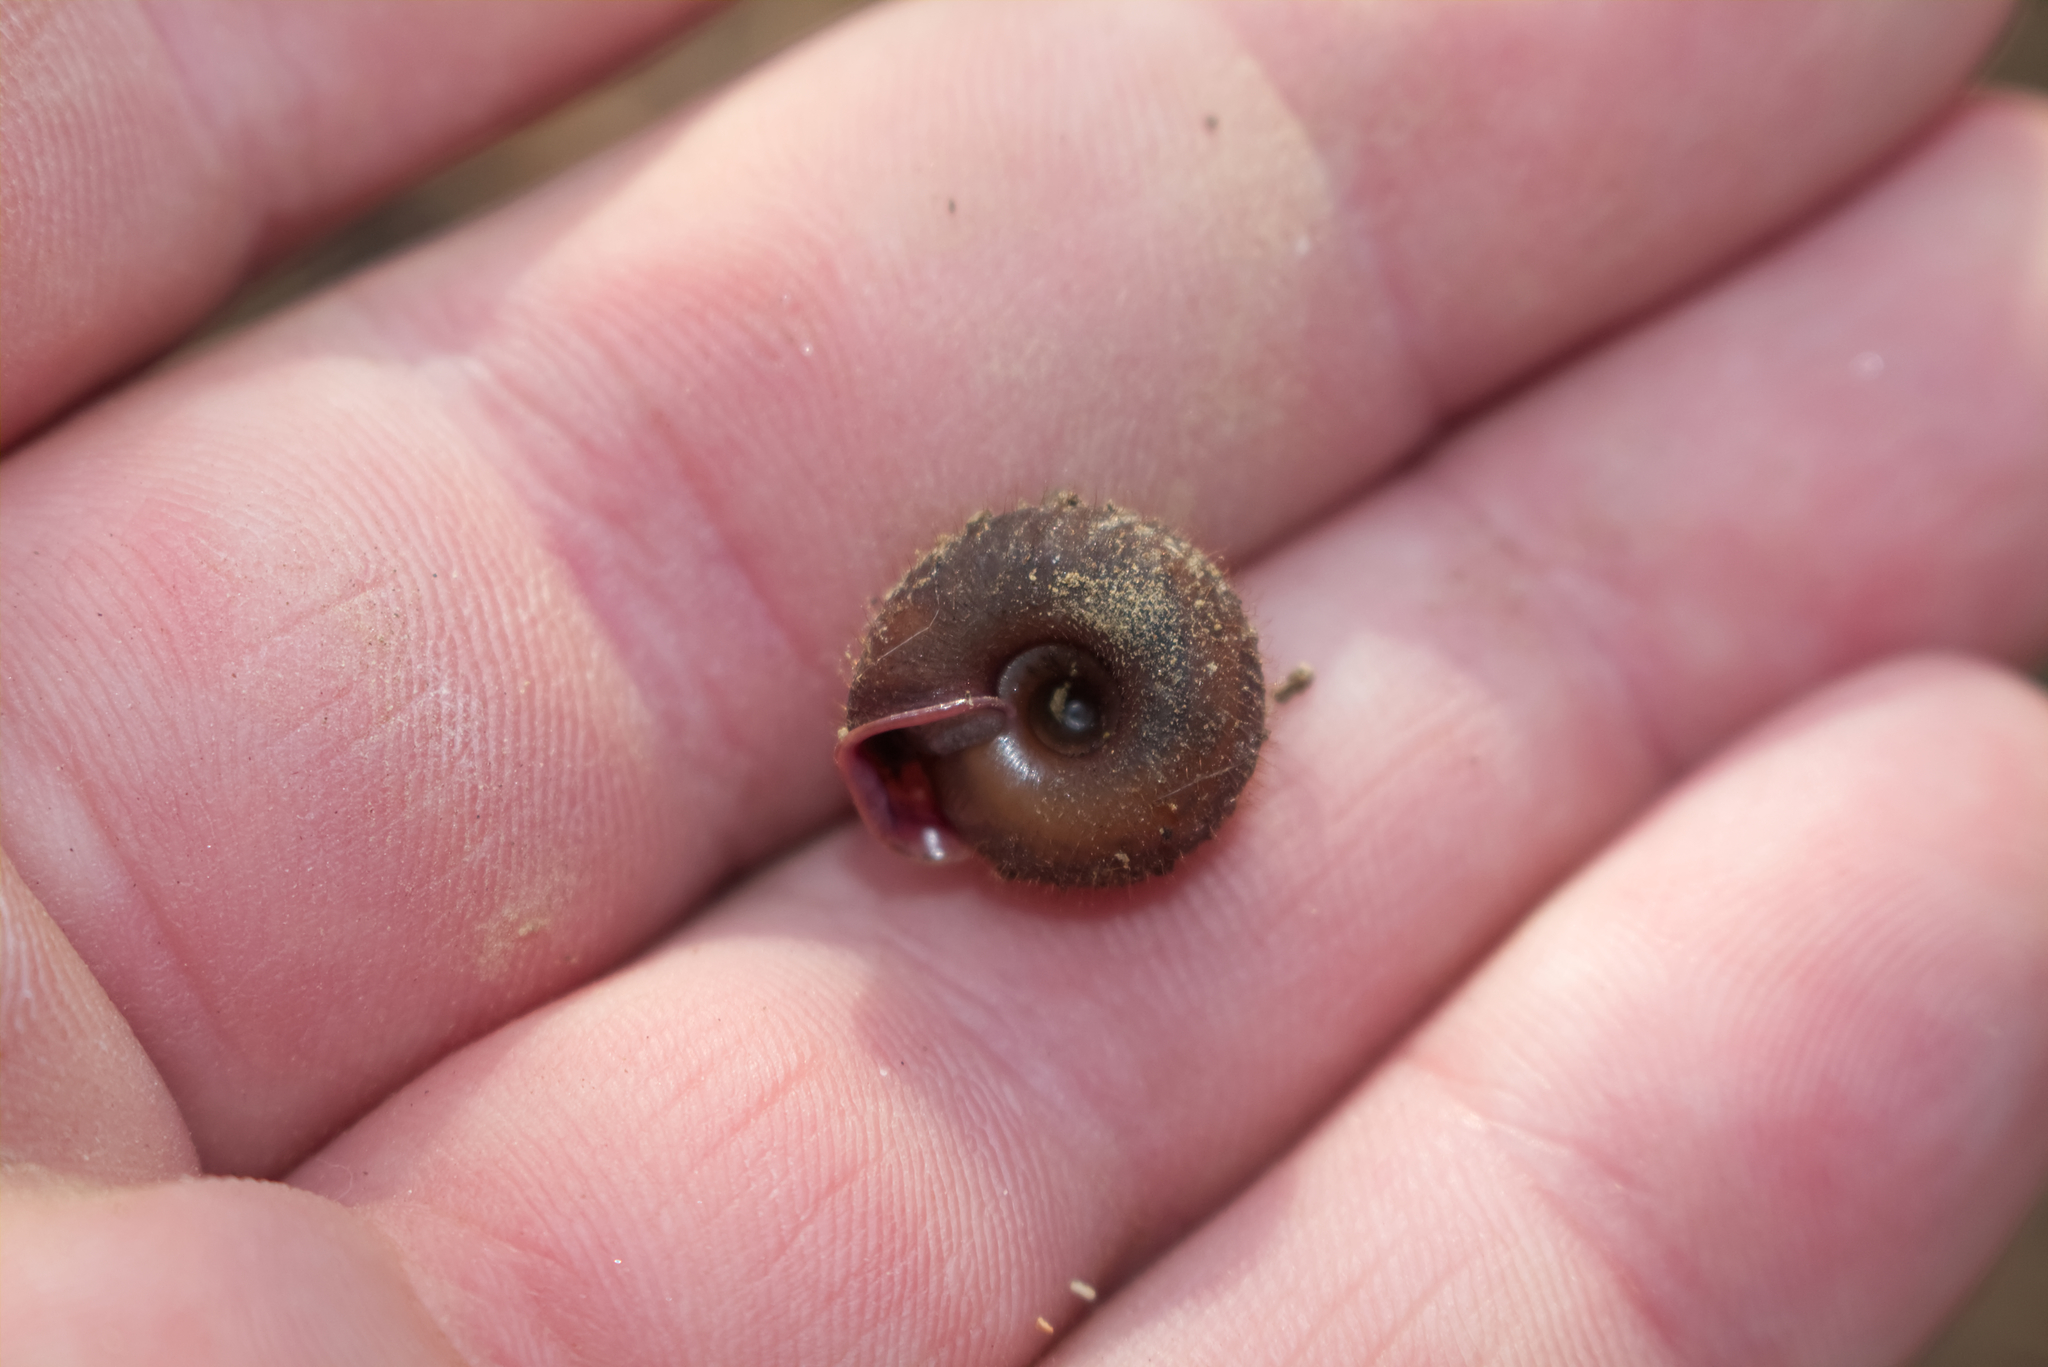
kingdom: Animalia
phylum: Mollusca
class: Gastropoda
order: Stylommatophora
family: Helicodontidae
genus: Helicodonta
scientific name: Helicodonta obvoluta
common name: Cheese snail
